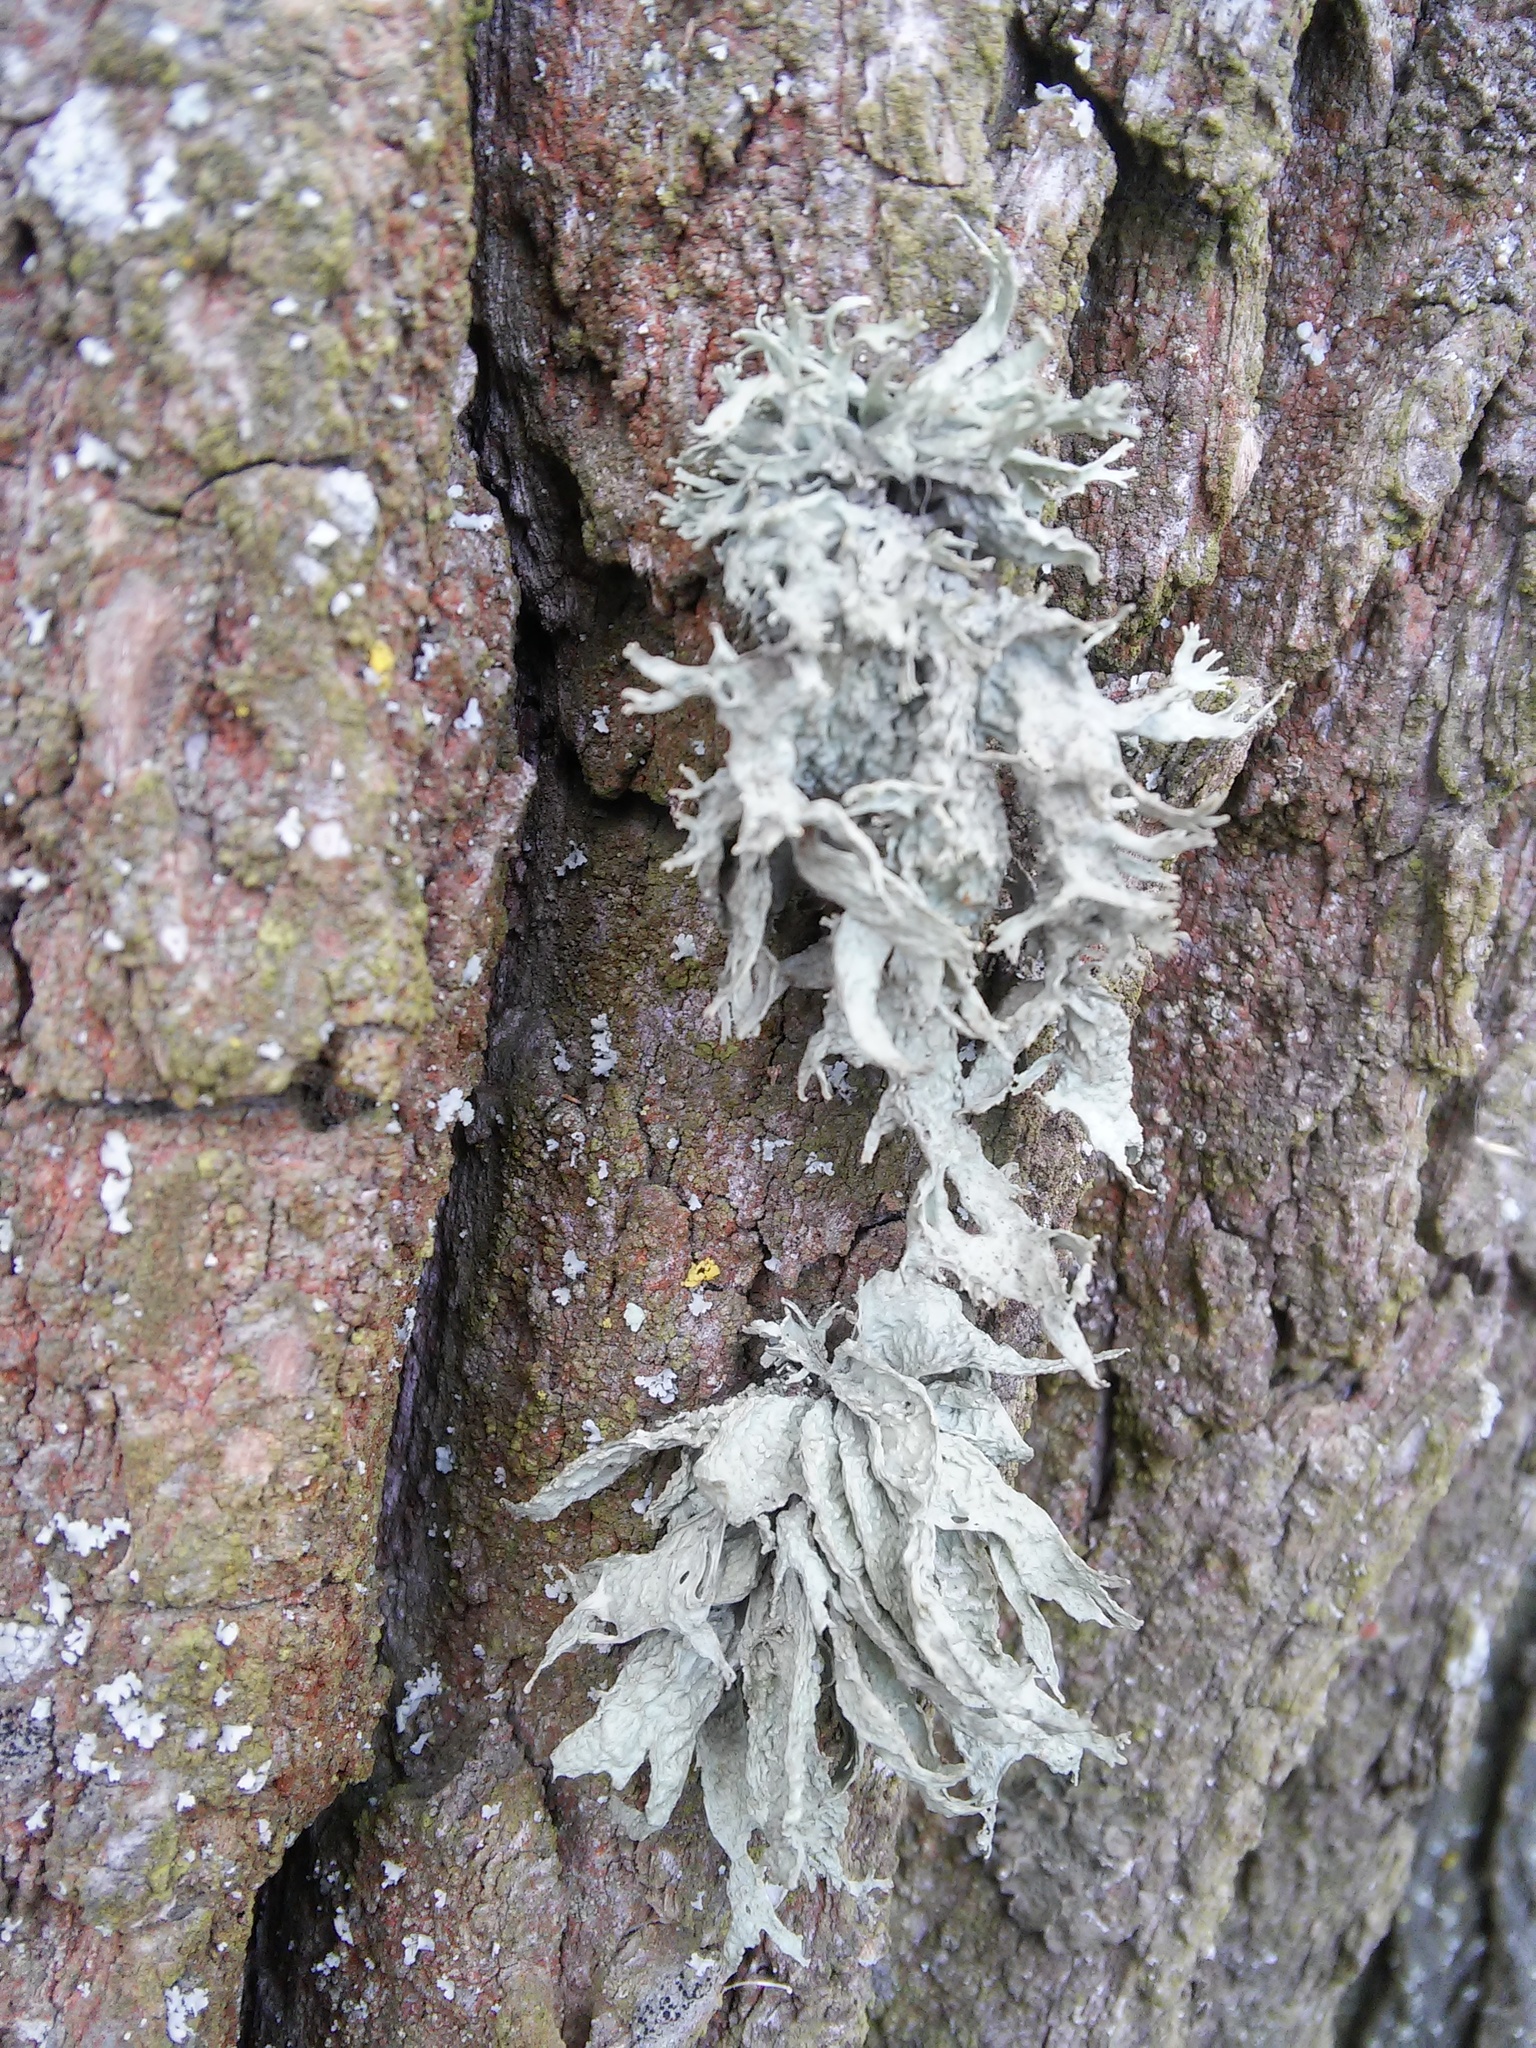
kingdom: Fungi
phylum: Ascomycota
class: Lecanoromycetes
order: Lecanorales
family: Ramalinaceae
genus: Ramalina
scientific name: Ramalina fraxinea
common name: Cartilage lichen
